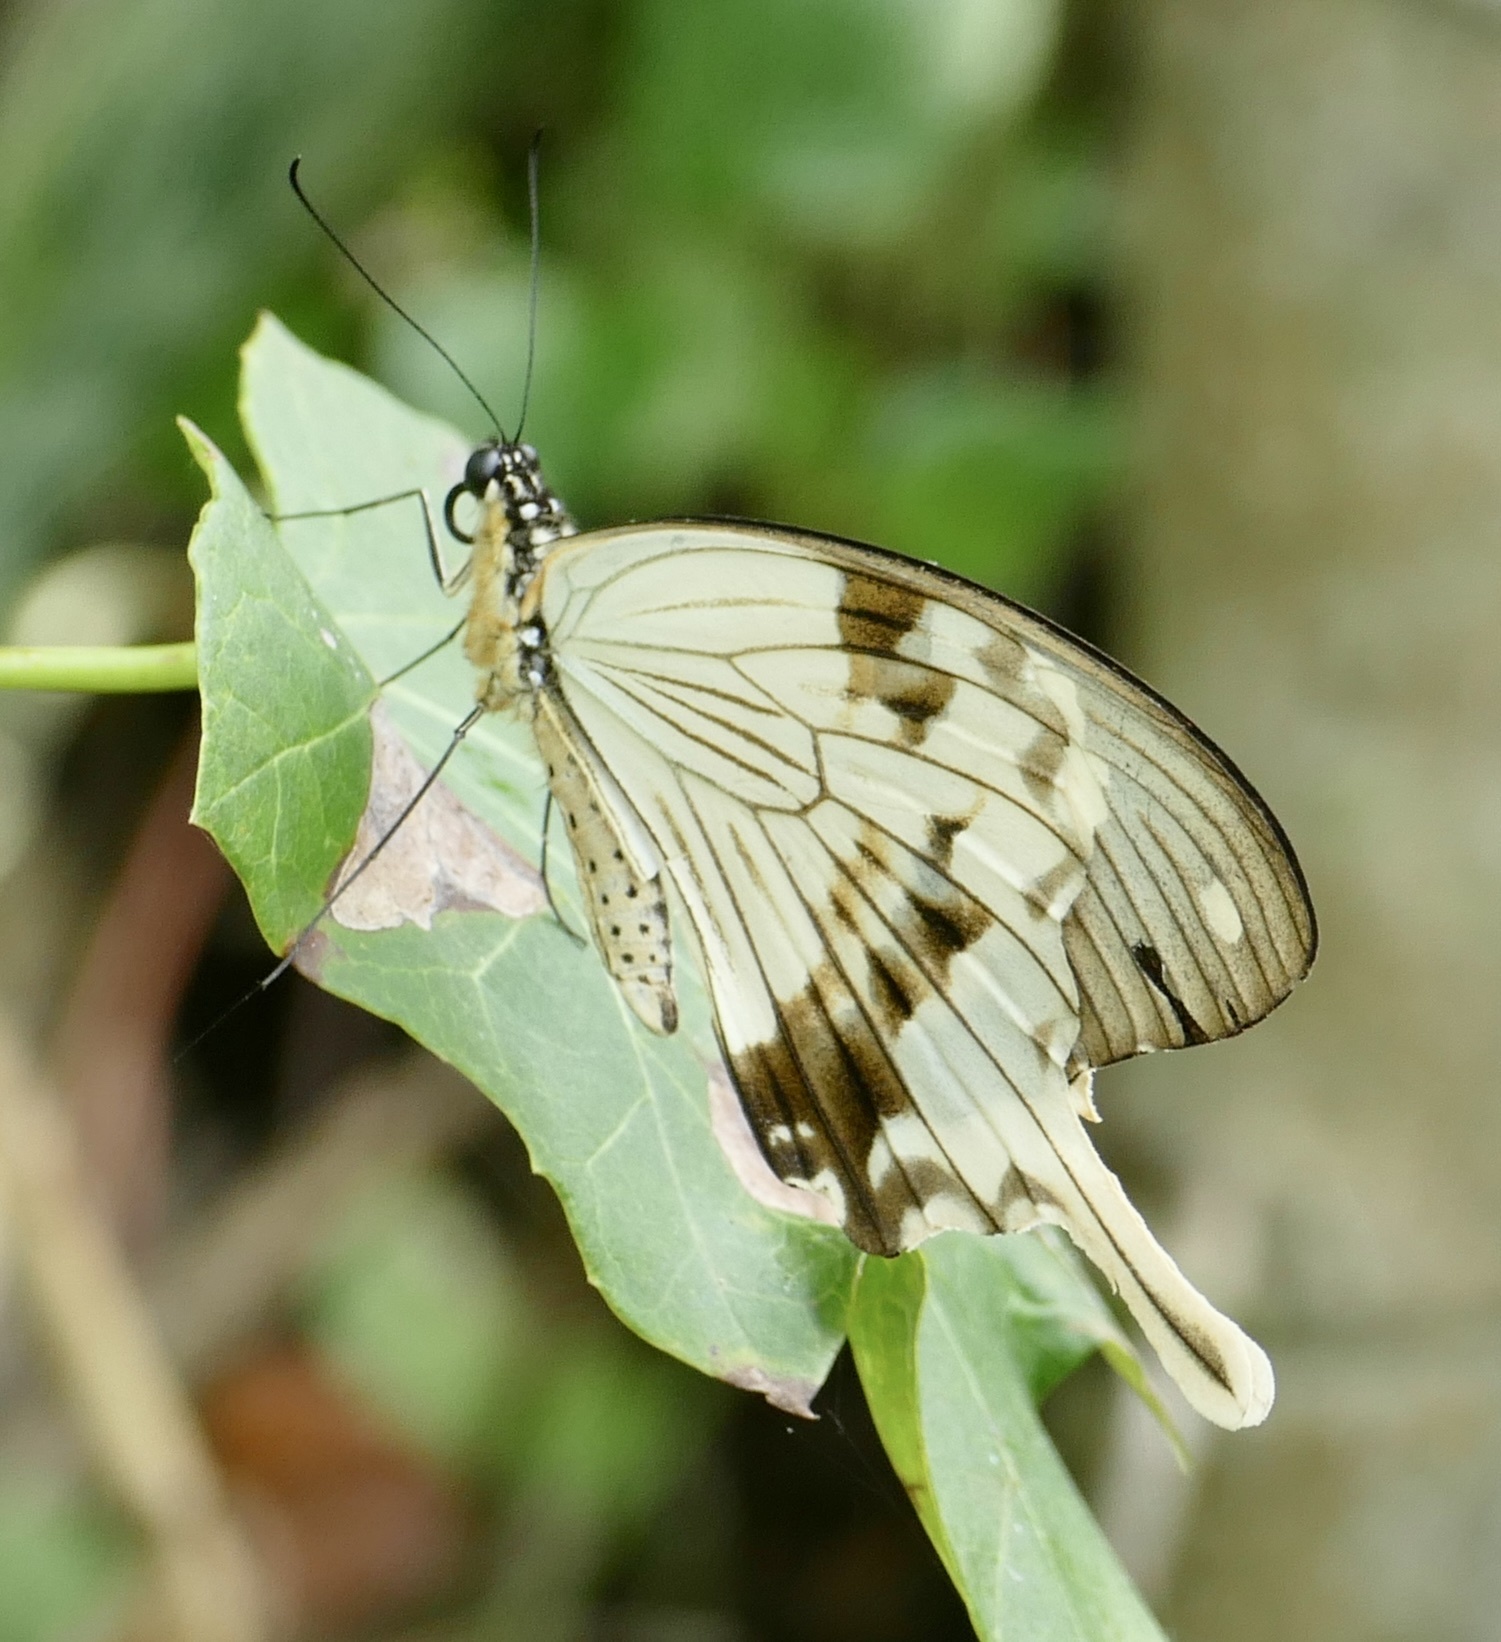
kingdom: Animalia
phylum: Arthropoda
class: Insecta
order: Lepidoptera
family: Papilionidae
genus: Papilio
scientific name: Papilio dardanus
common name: Flying handkerchief
